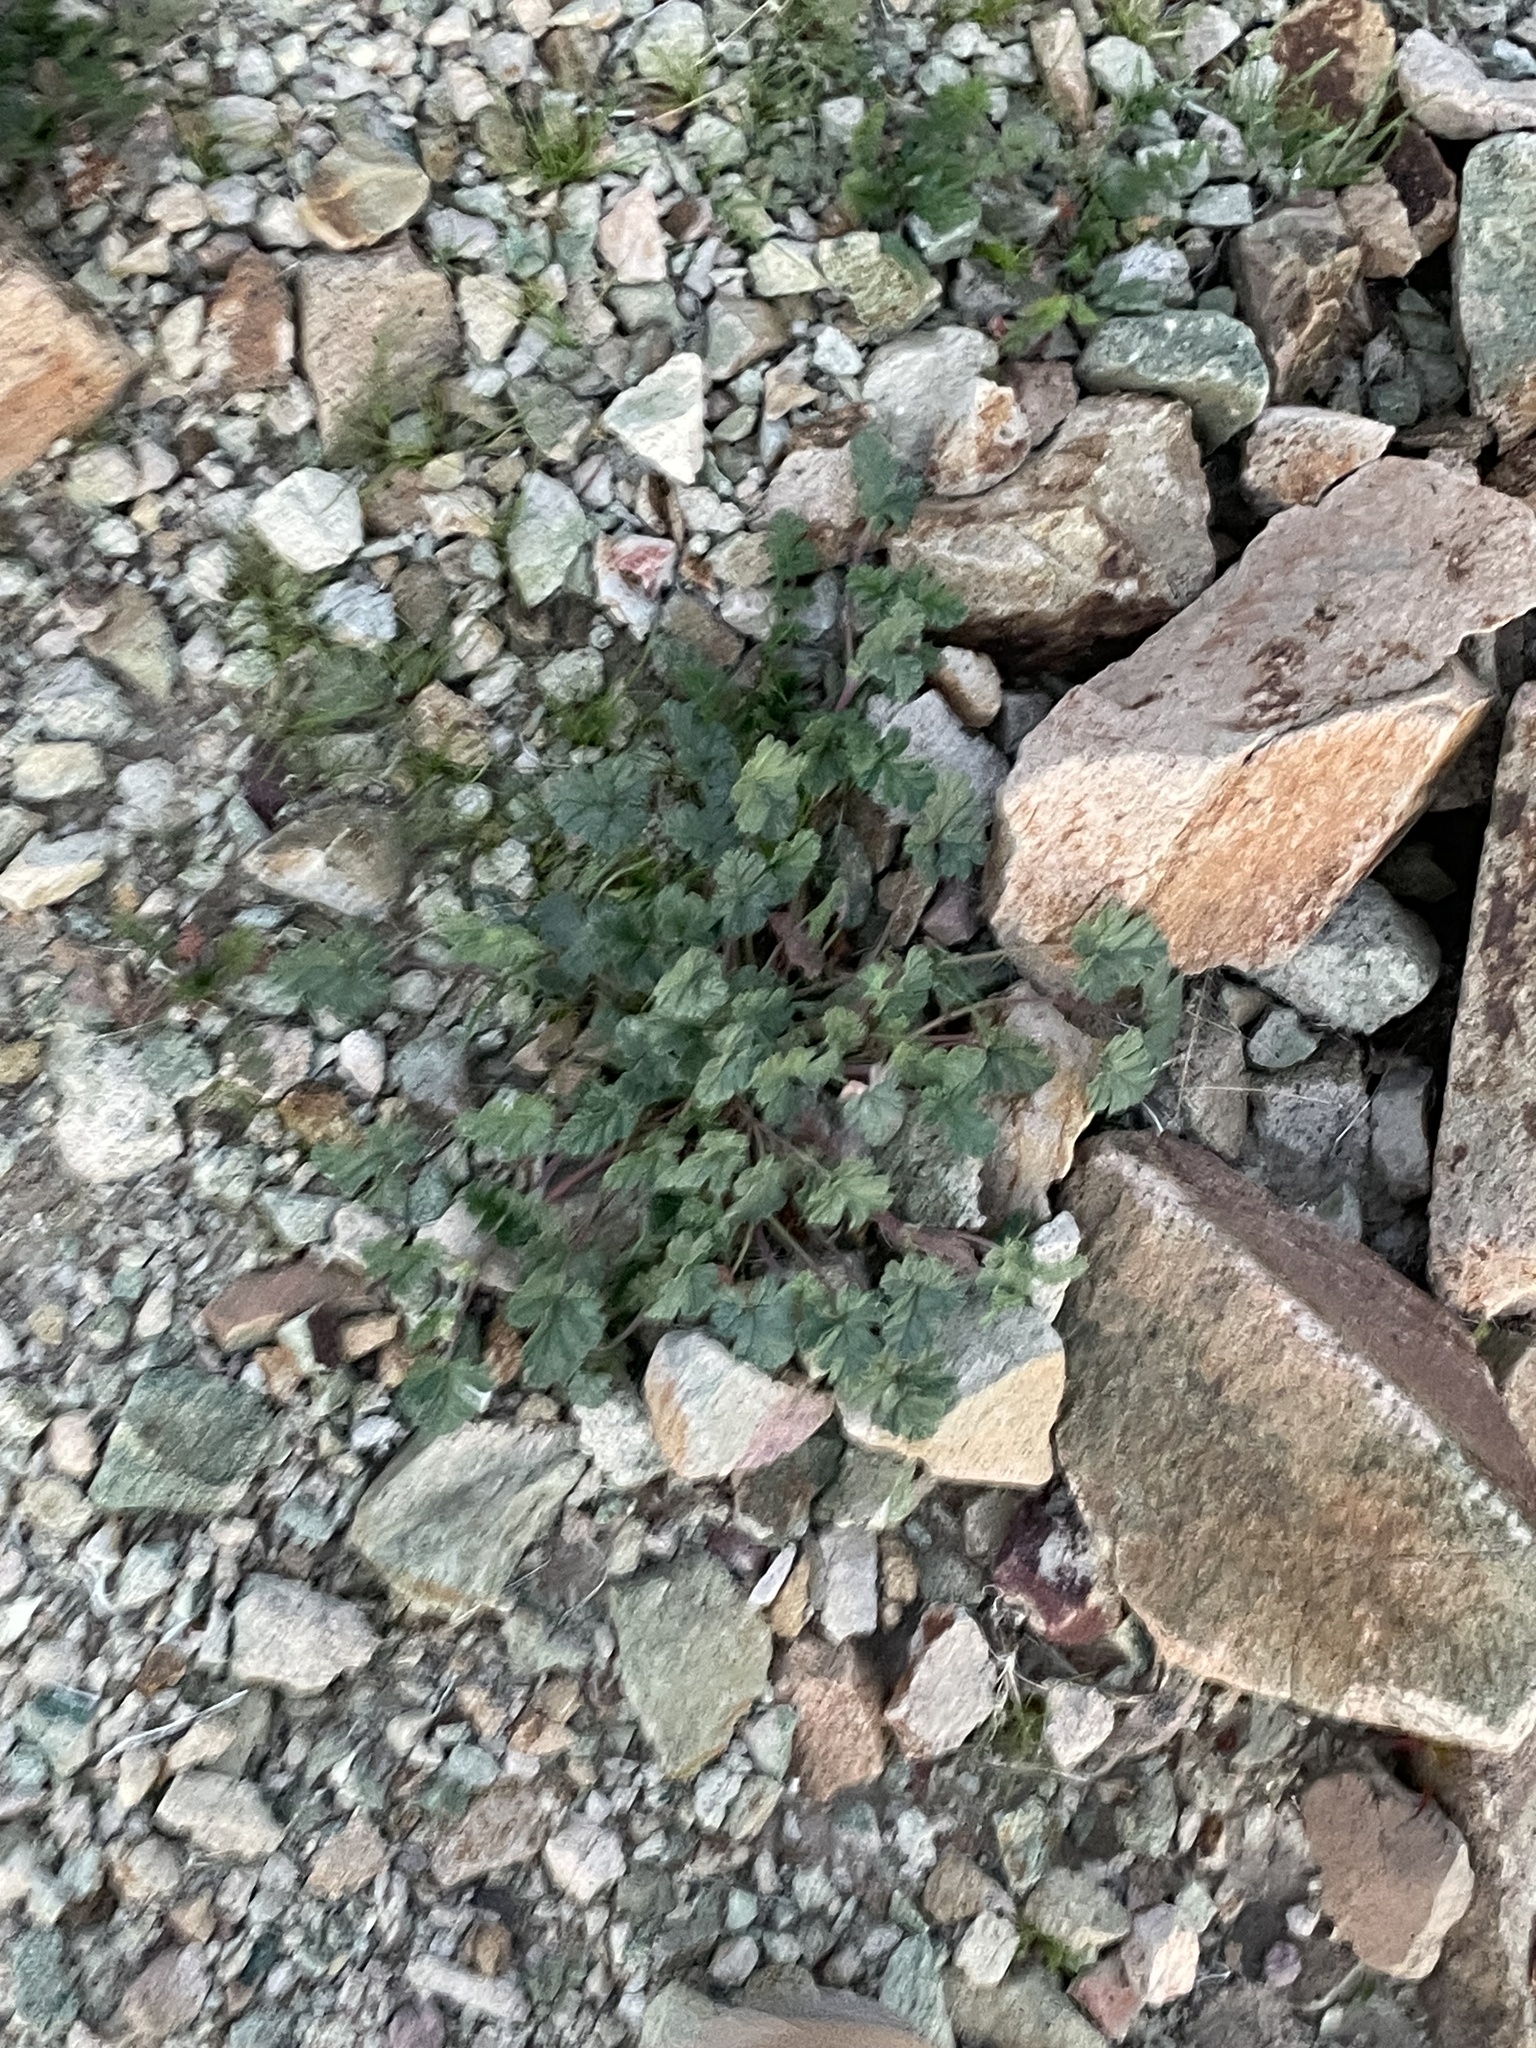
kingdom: Plantae
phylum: Tracheophyta
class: Magnoliopsida
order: Geraniales
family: Geraniaceae
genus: Erodium
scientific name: Erodium texanum
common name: Texas stork's-bill
